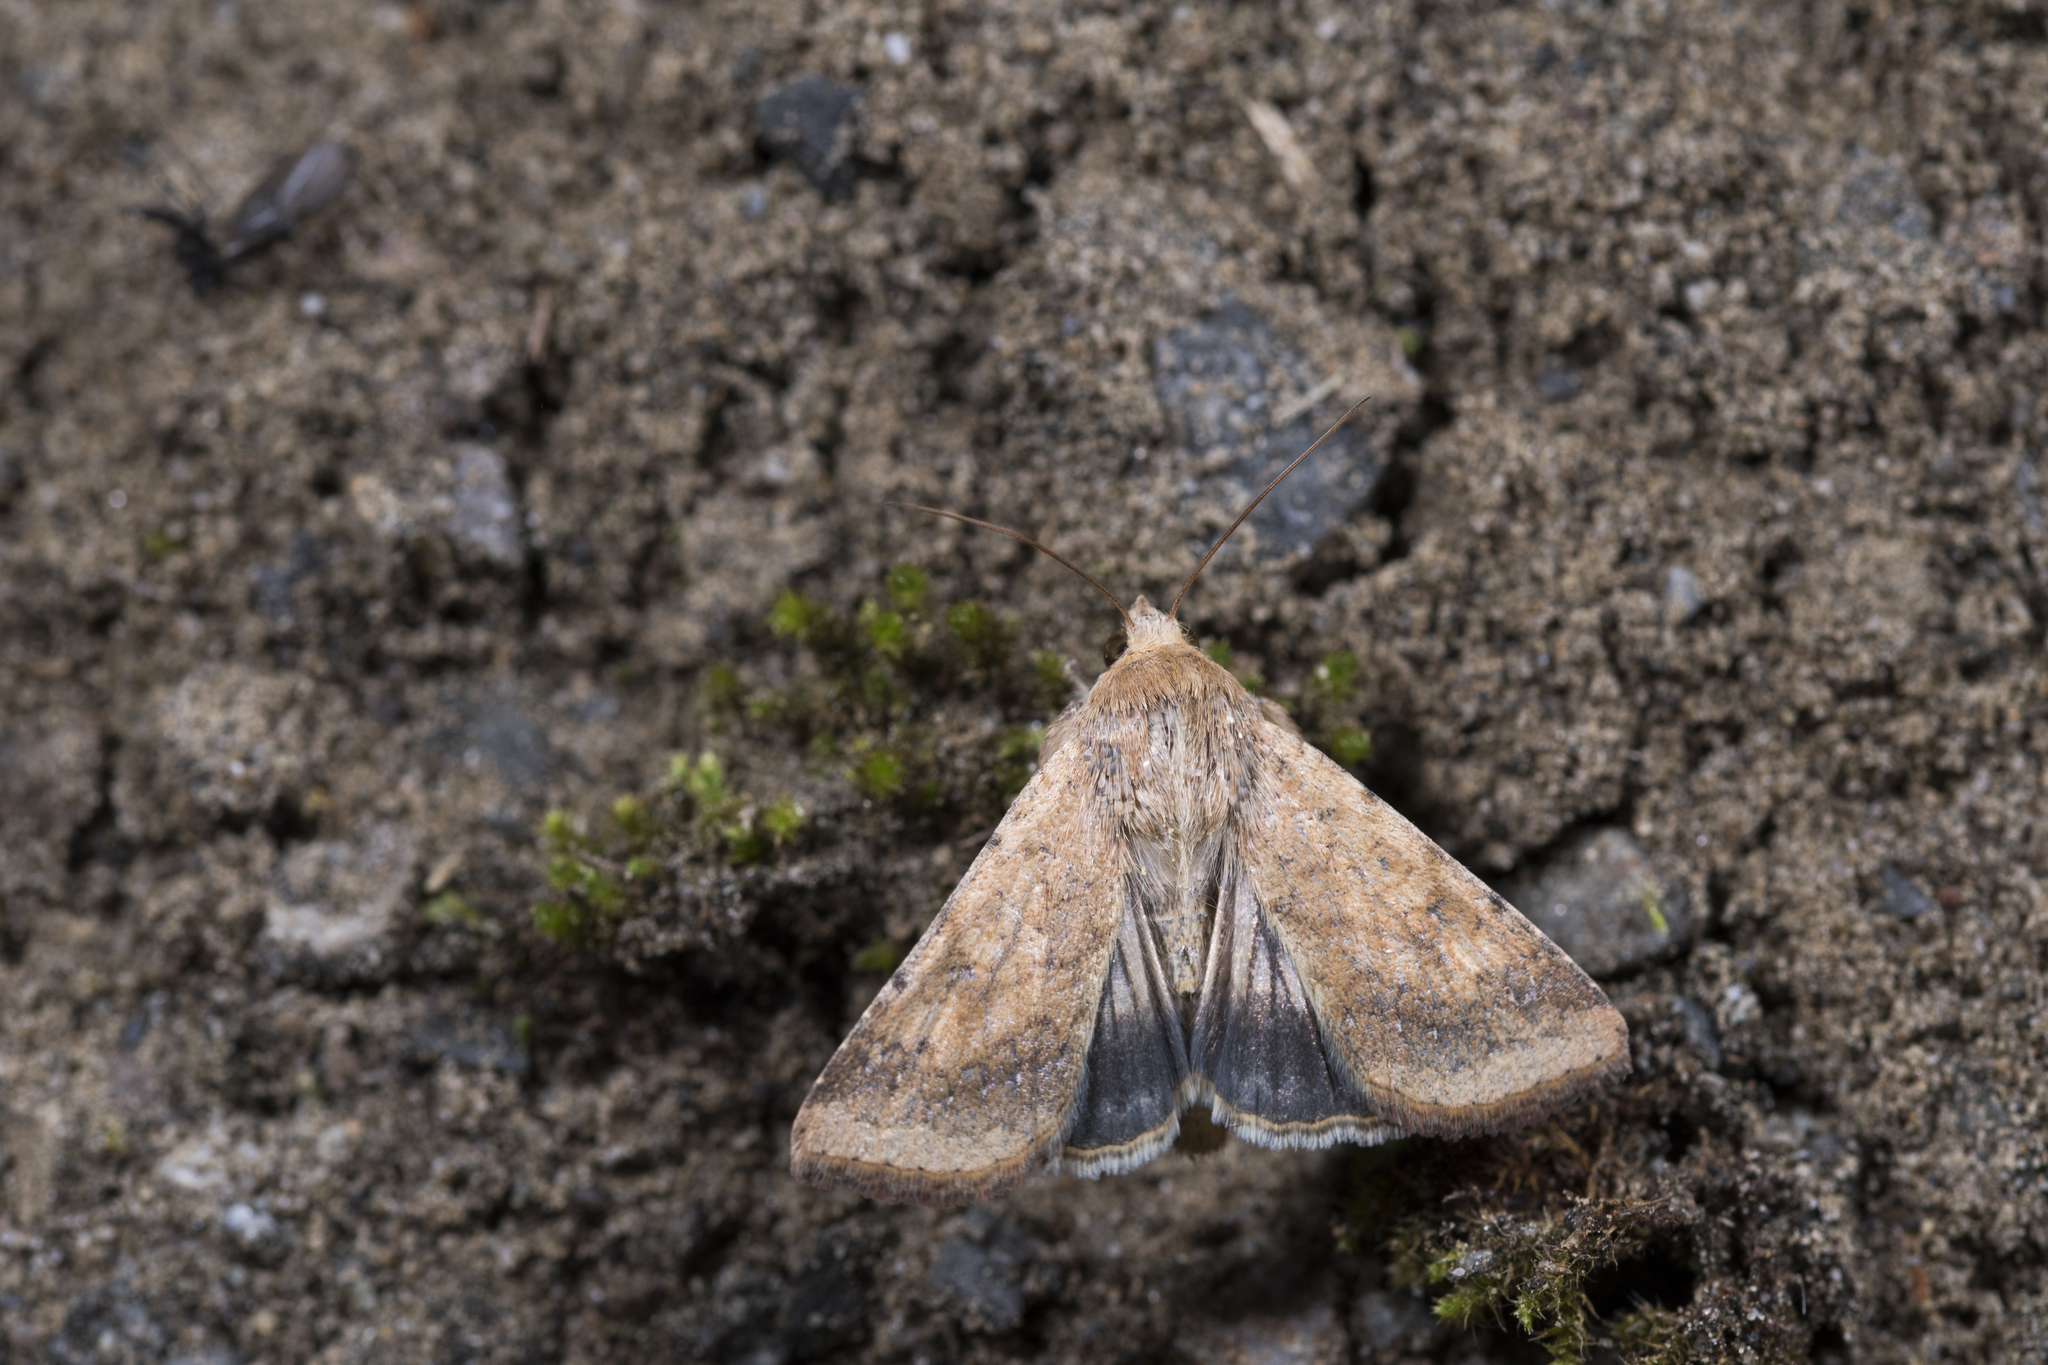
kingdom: Animalia
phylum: Arthropoda
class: Insecta
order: Lepidoptera
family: Noctuidae
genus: Helicoverpa
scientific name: Helicoverpa armigera
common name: Cotton bollworm
